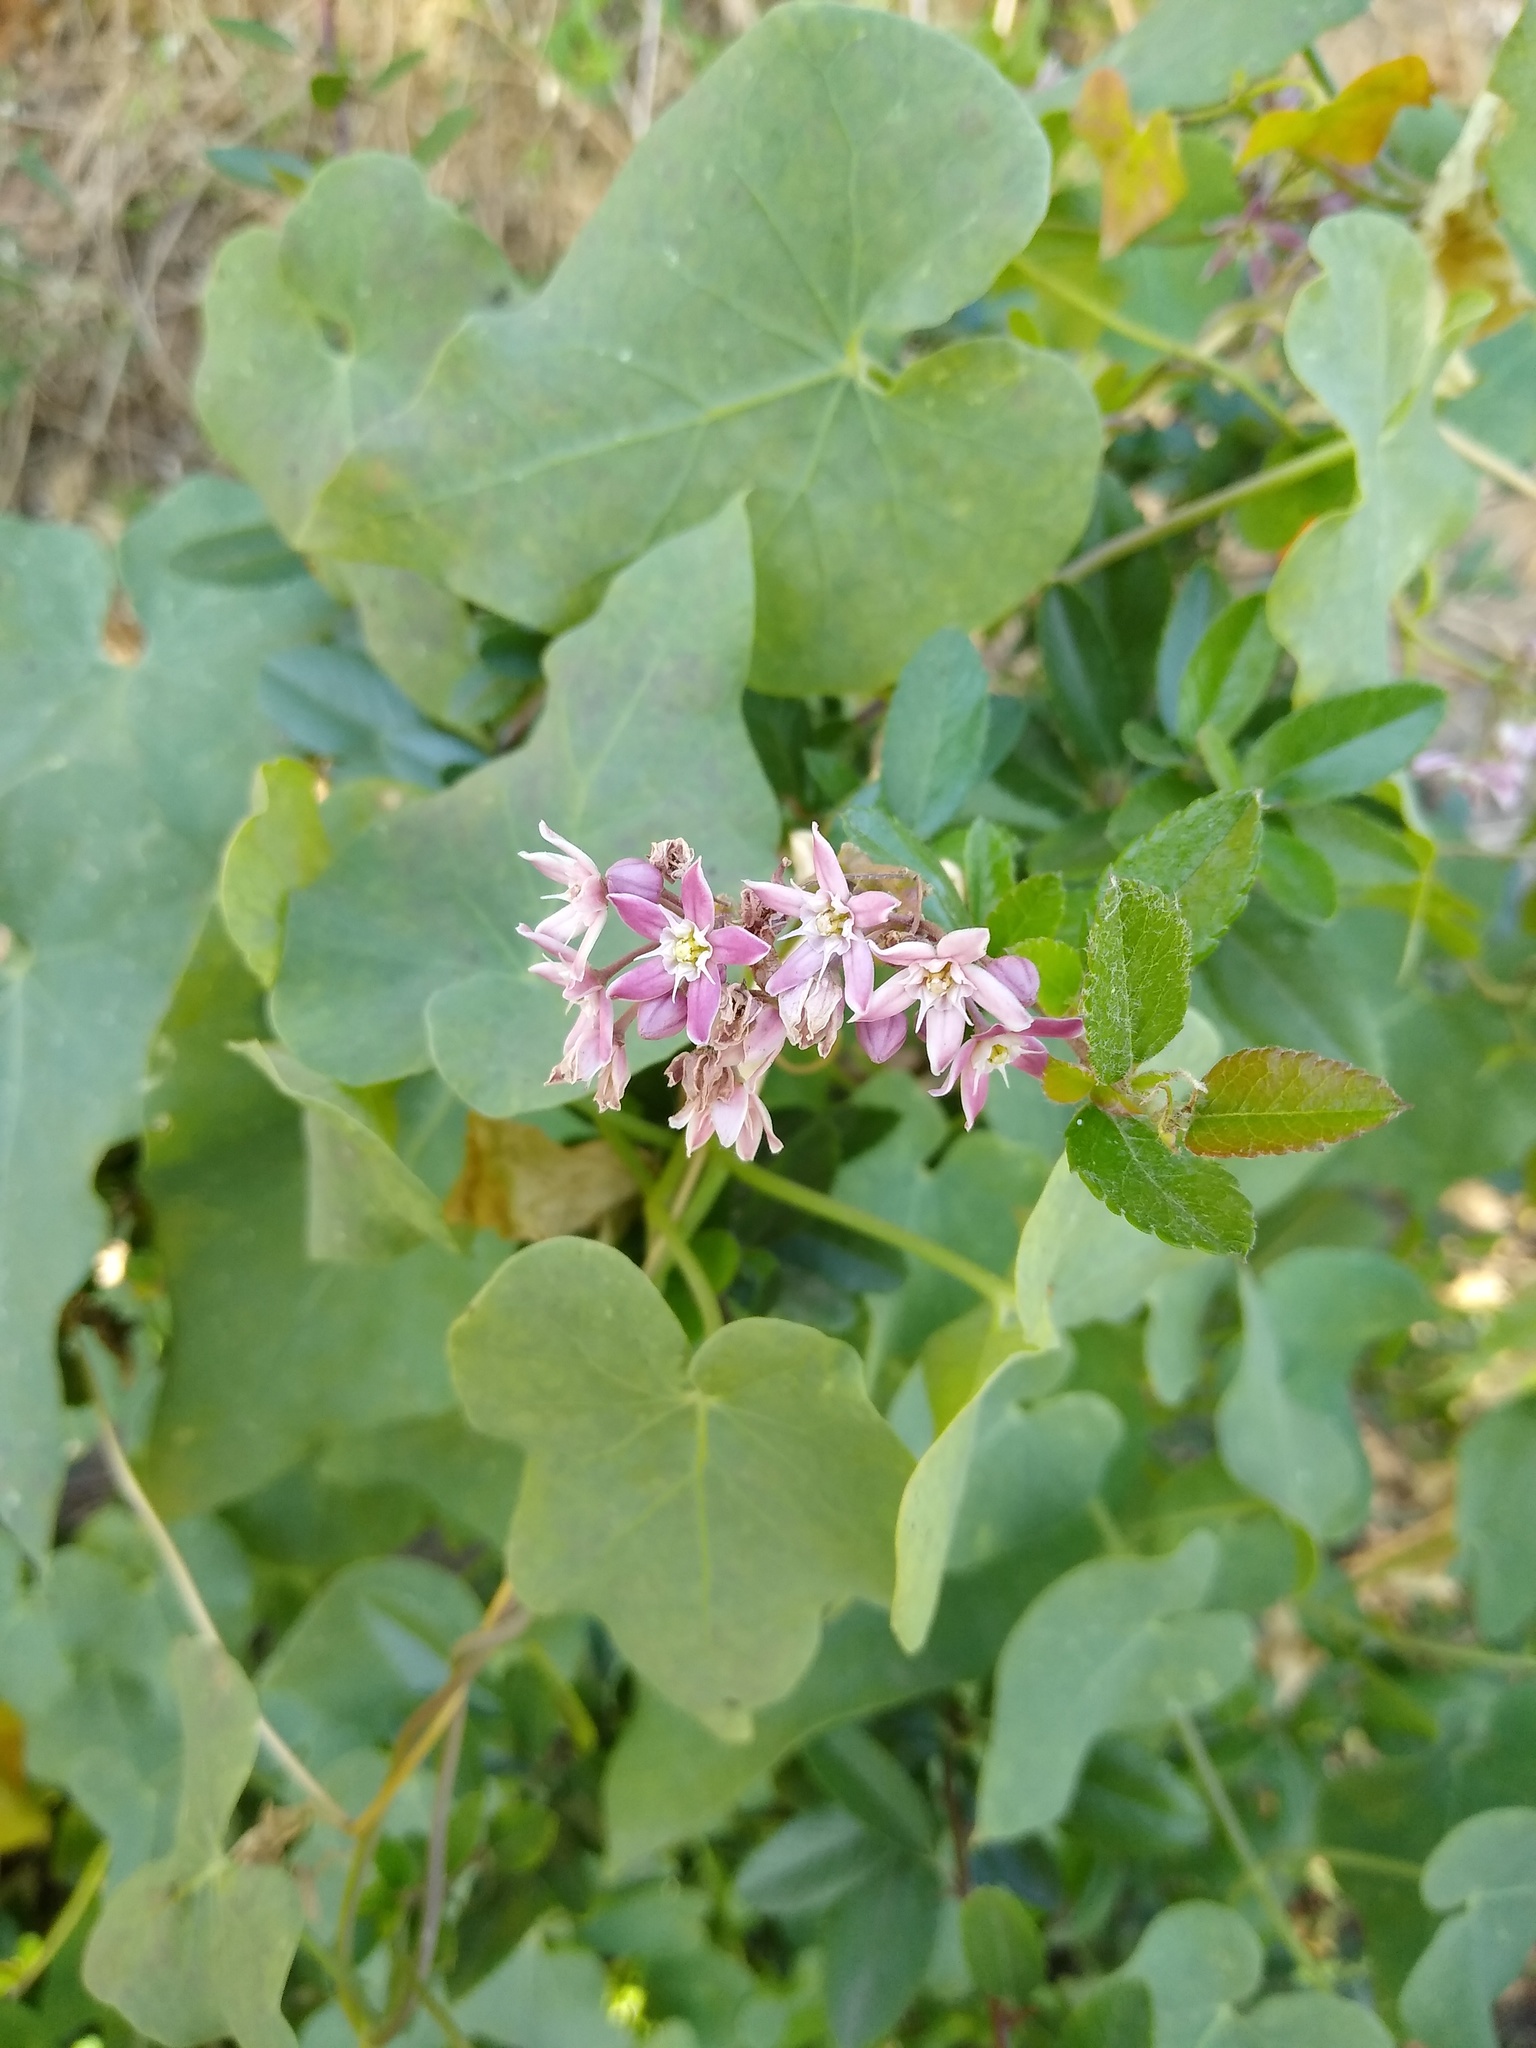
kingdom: Plantae
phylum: Tracheophyta
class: Magnoliopsida
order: Gentianales
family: Apocynaceae
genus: Cynanchum
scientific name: Cynanchum acutum
